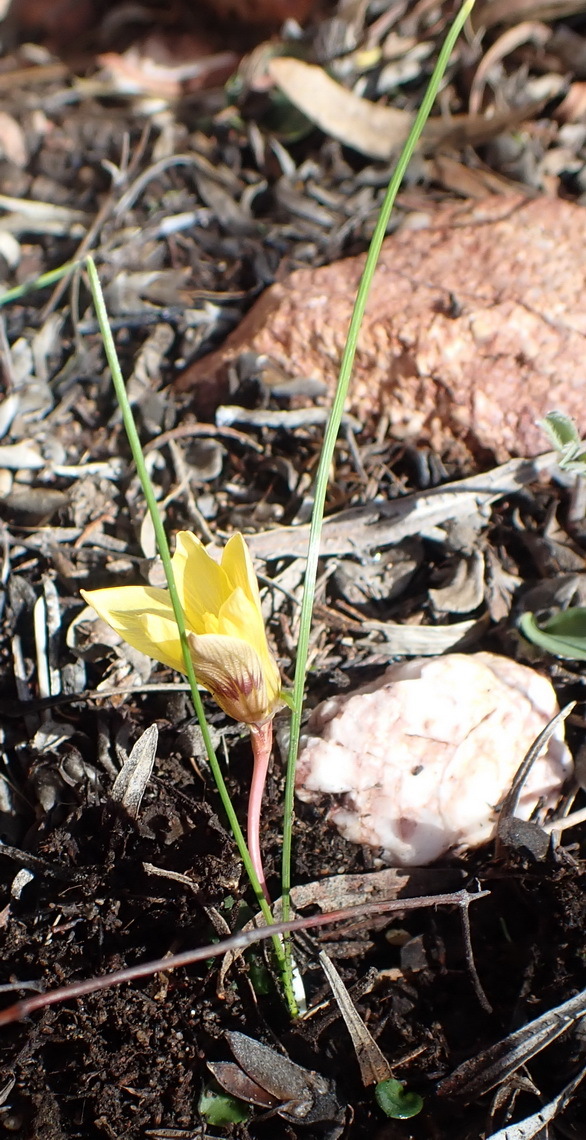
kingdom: Plantae
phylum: Tracheophyta
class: Liliopsida
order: Asparagales
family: Iridaceae
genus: Romulea
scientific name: Romulea austinii
